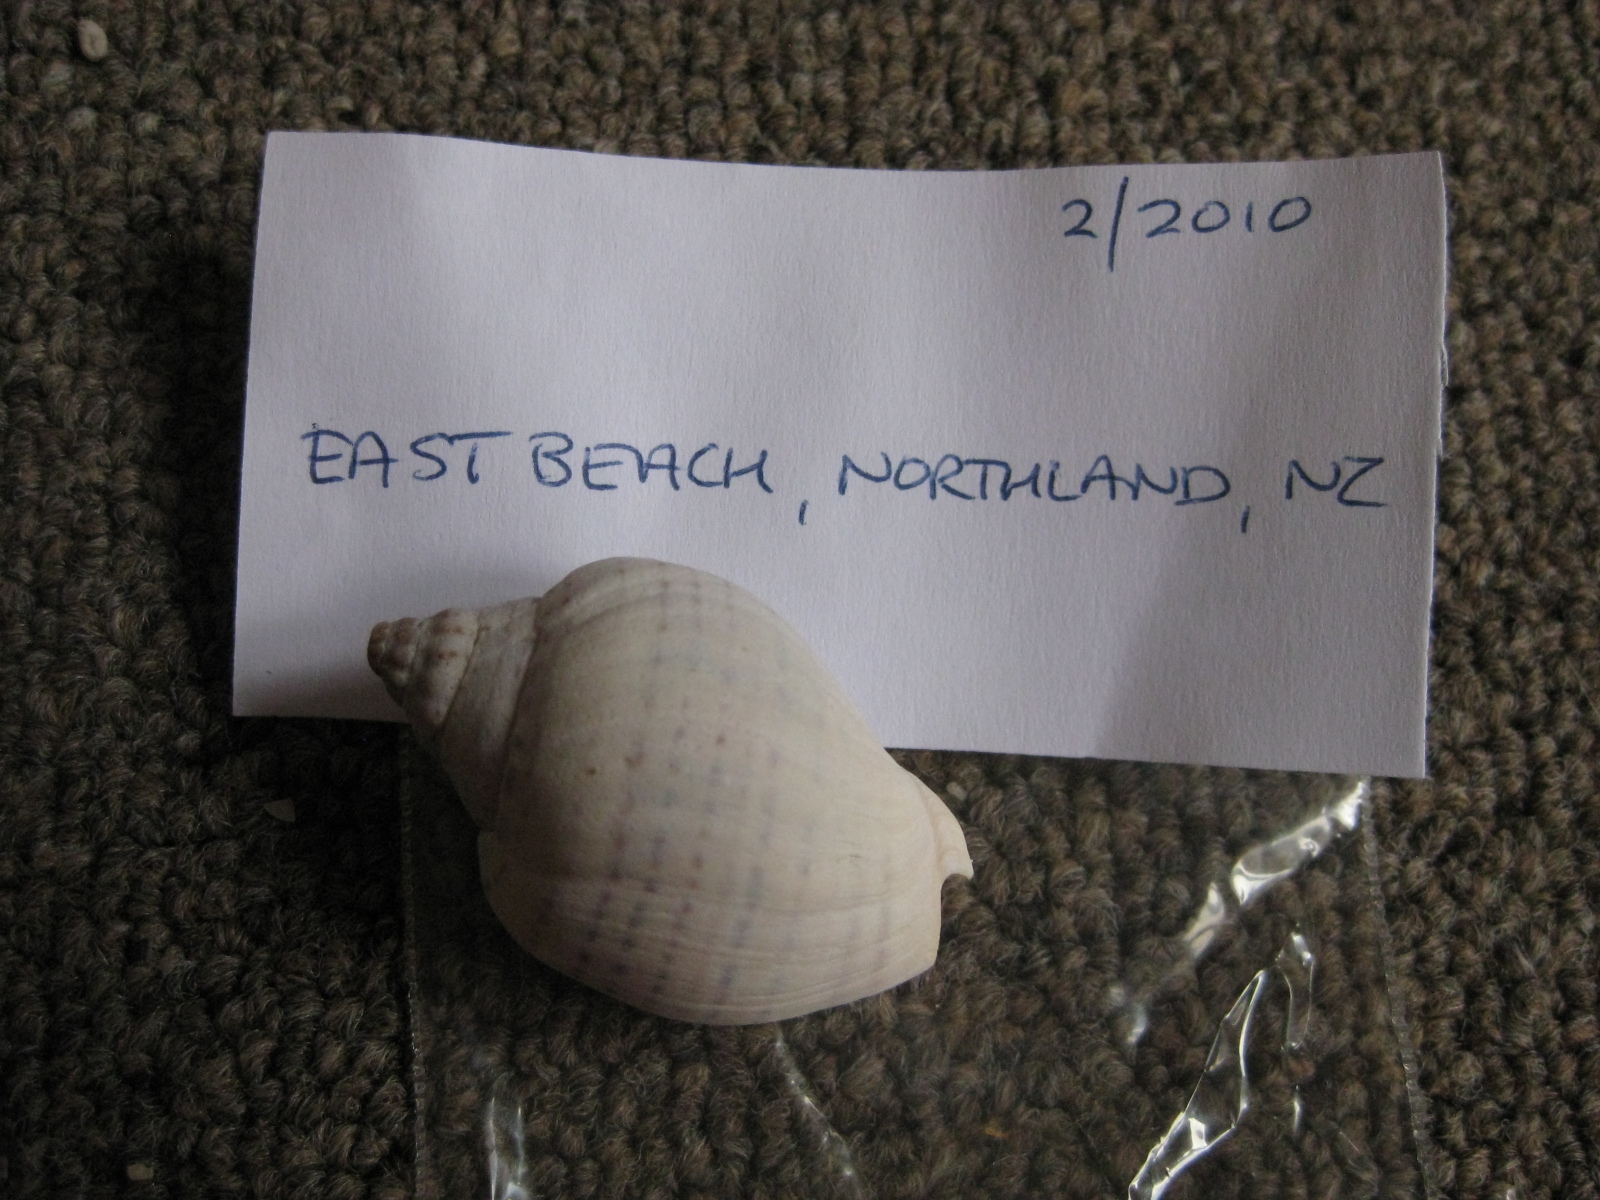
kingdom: Animalia
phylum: Mollusca
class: Gastropoda
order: Neogastropoda
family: Cominellidae
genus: Cominella
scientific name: Cominella adspersa
